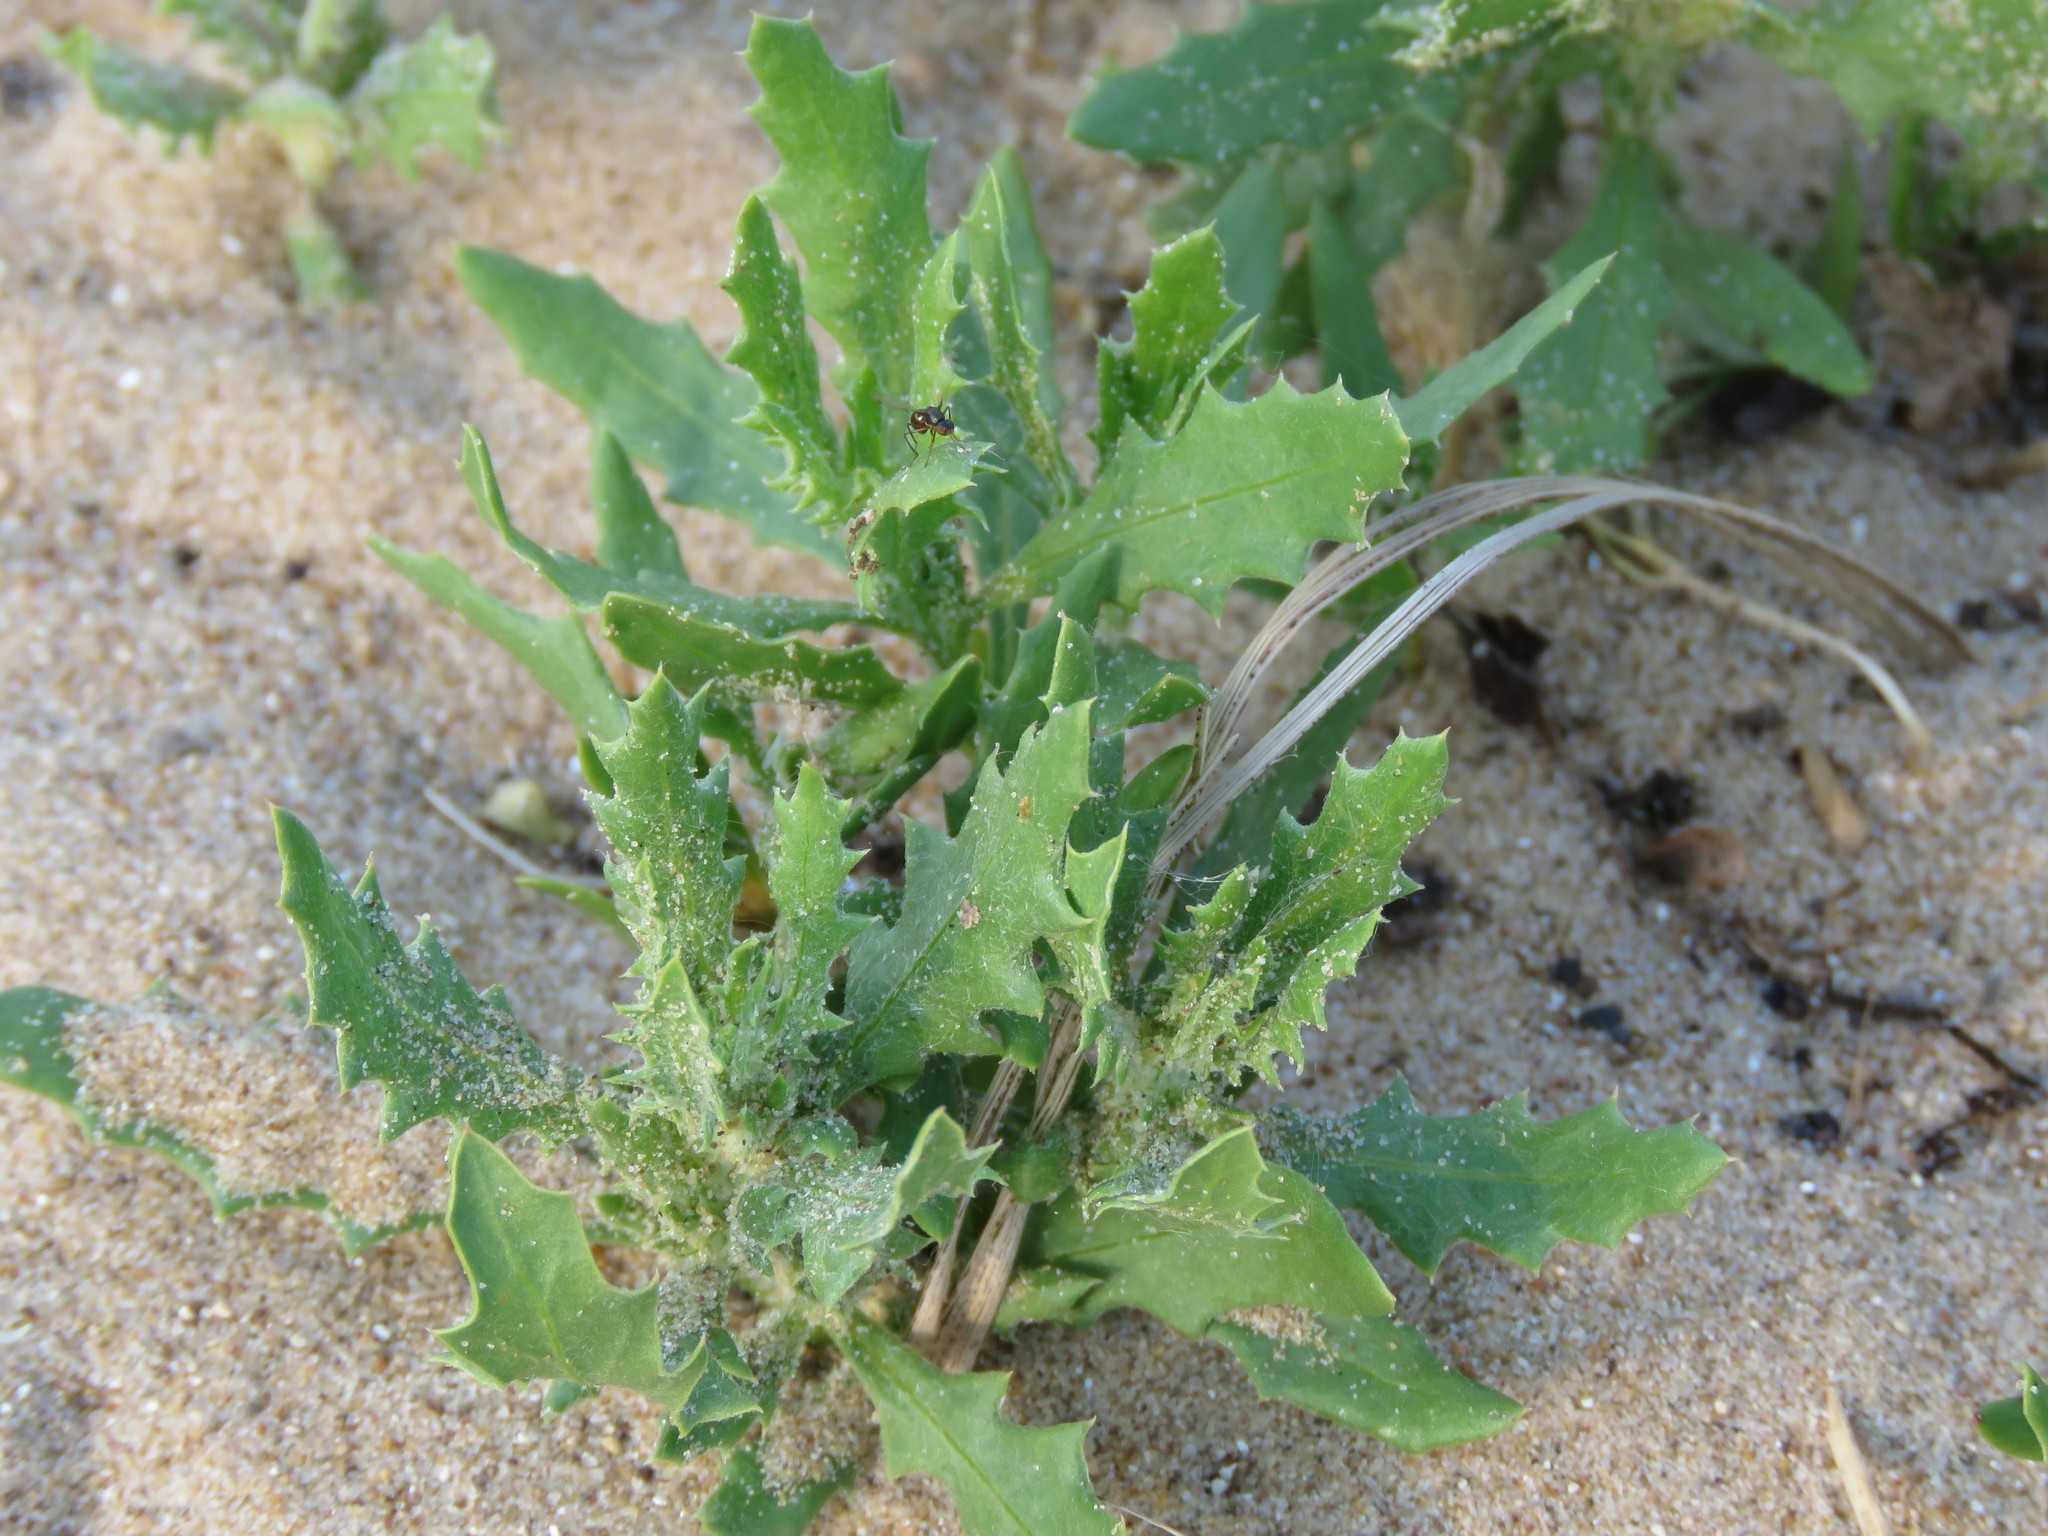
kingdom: Plantae
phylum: Tracheophyta
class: Magnoliopsida
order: Caryophyllales
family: Amaranthaceae
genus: Dysphania
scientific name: Dysphania atriplicifolia
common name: Plains tumbleweed
